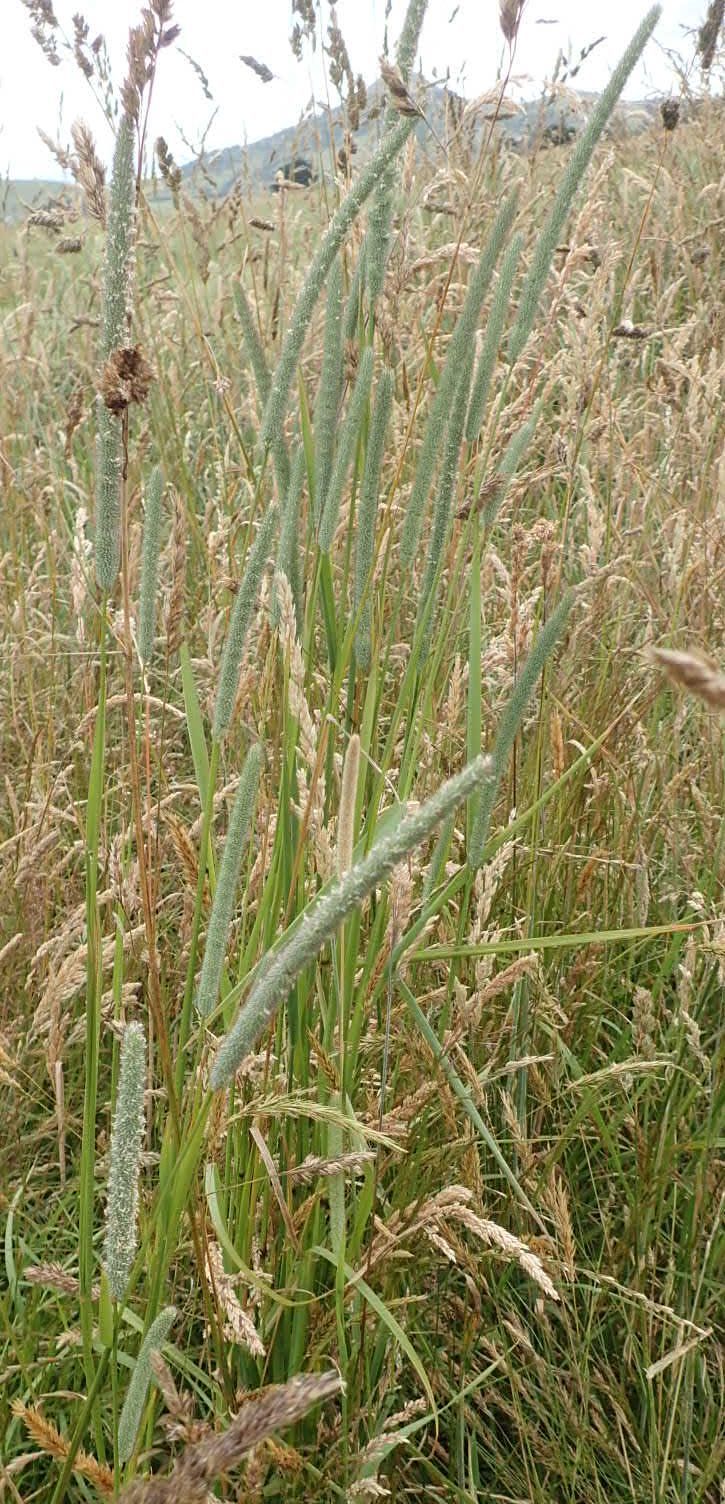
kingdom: Plantae
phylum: Tracheophyta
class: Liliopsida
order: Poales
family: Poaceae
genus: Phleum
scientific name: Phleum pratense
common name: Timothy grass
